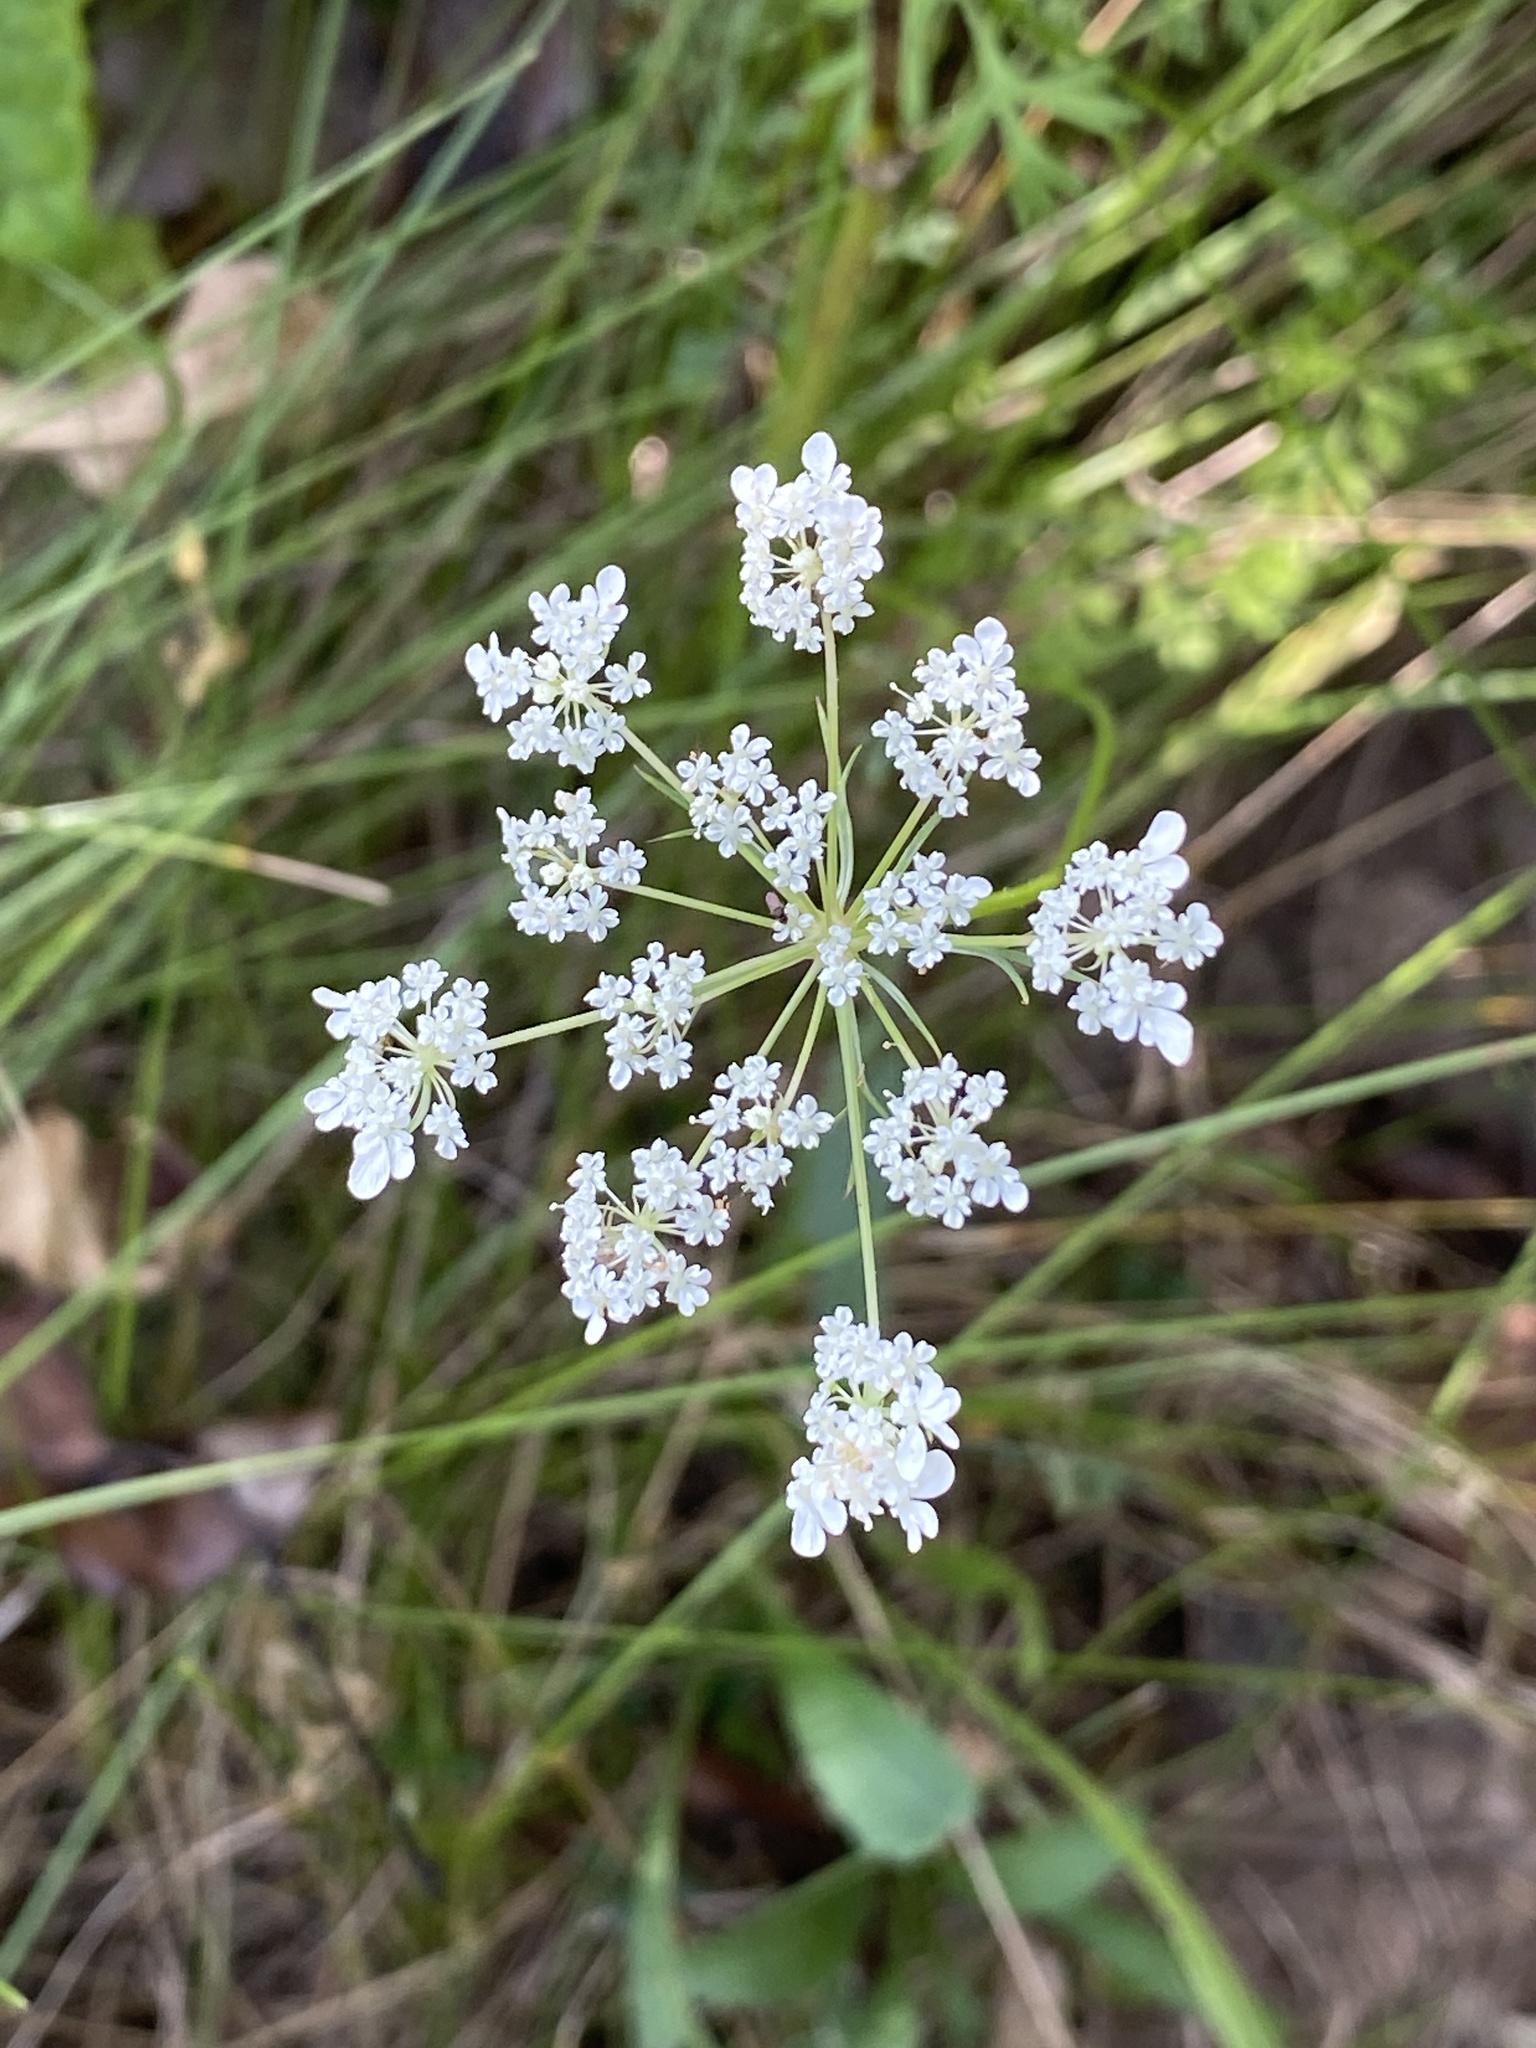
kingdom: Plantae
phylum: Tracheophyta
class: Magnoliopsida
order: Apiales
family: Apiaceae
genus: Daucus
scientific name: Daucus carota
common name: Wild carrot
